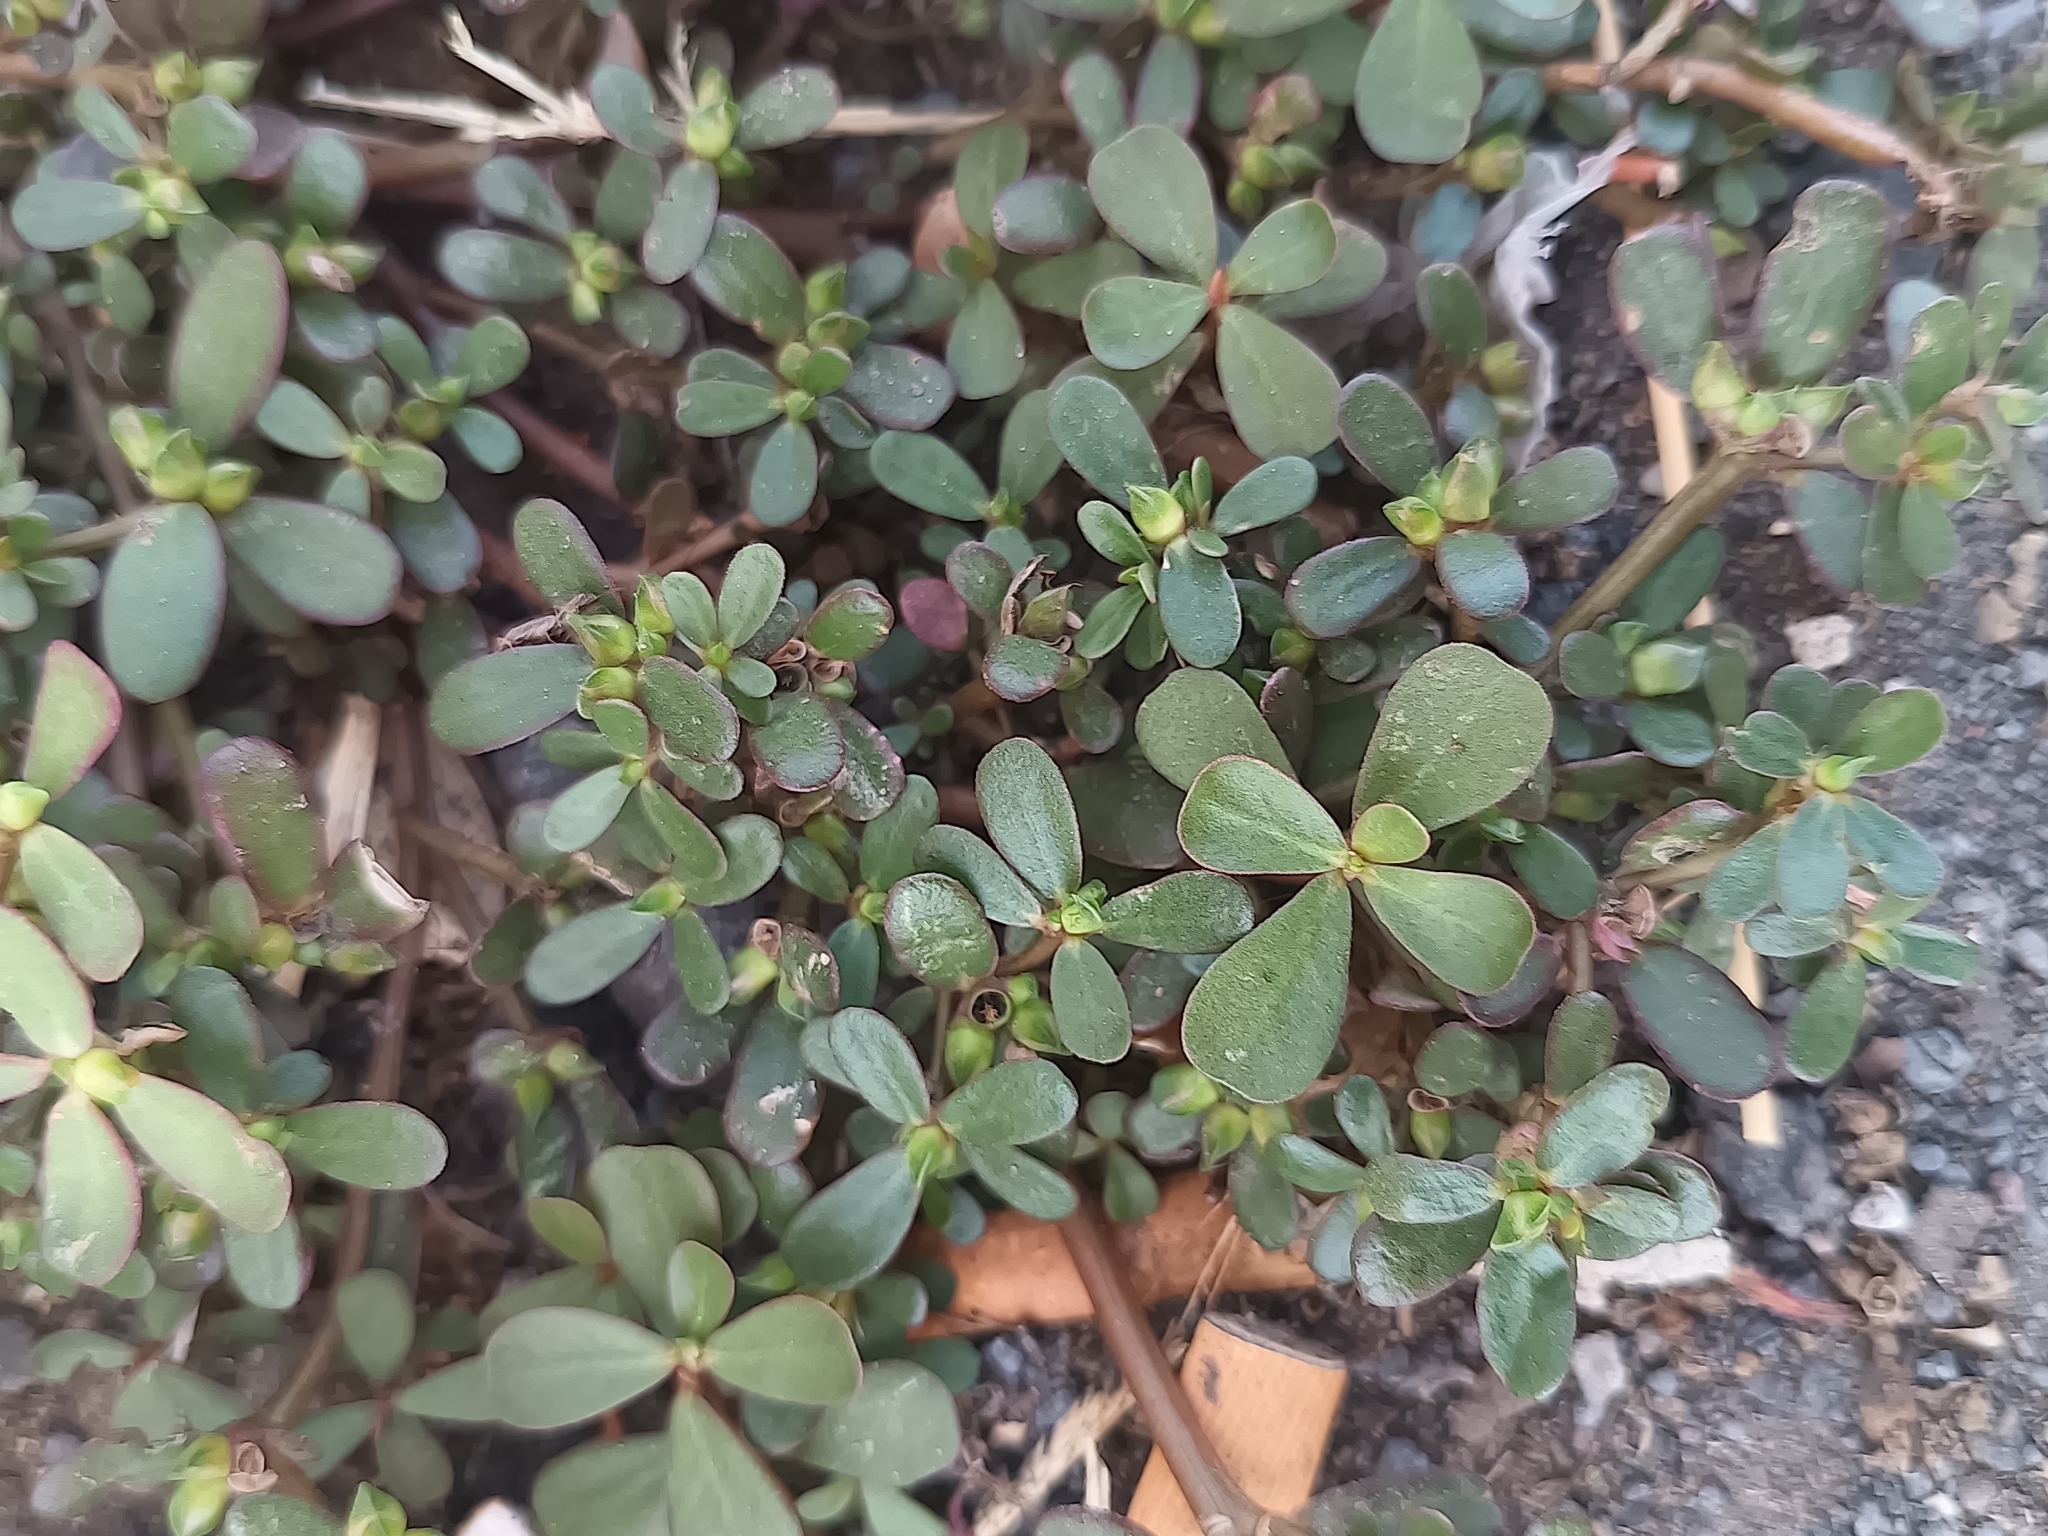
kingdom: Plantae
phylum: Tracheophyta
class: Magnoliopsida
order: Caryophyllales
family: Portulacaceae
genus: Portulaca
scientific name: Portulaca oleracea
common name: Common purslane
